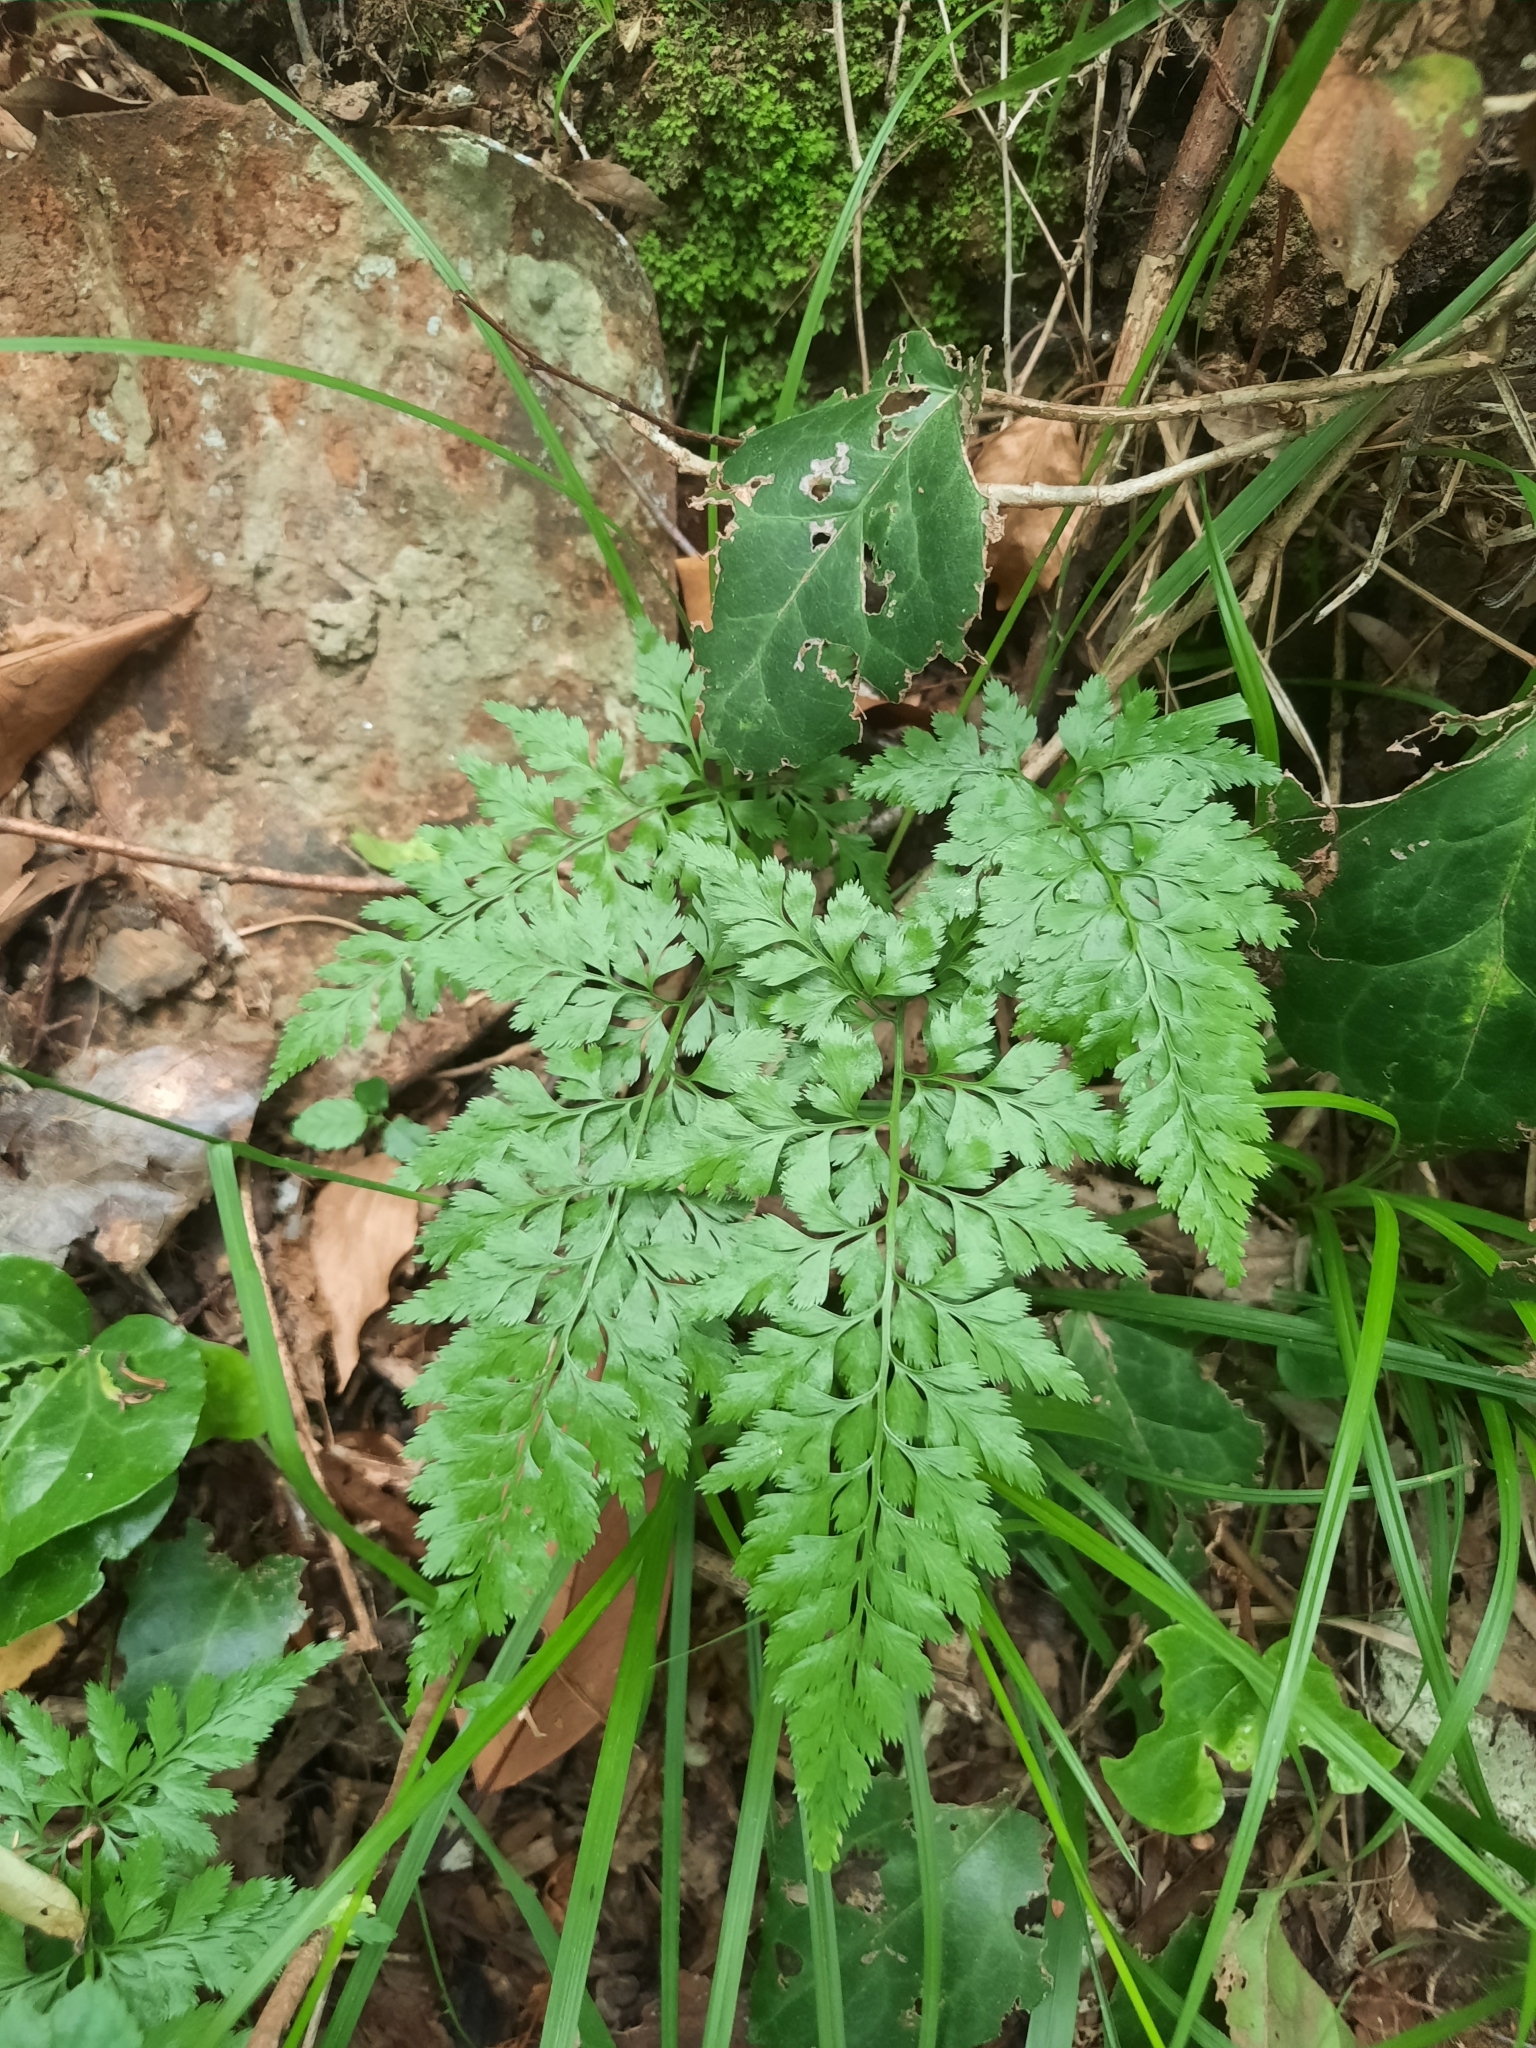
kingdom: Plantae
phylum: Tracheophyta
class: Polypodiopsida
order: Polypodiales
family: Aspleniaceae
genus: Asplenium
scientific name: Asplenium adiantum-nigrum
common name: Black spleenwort
